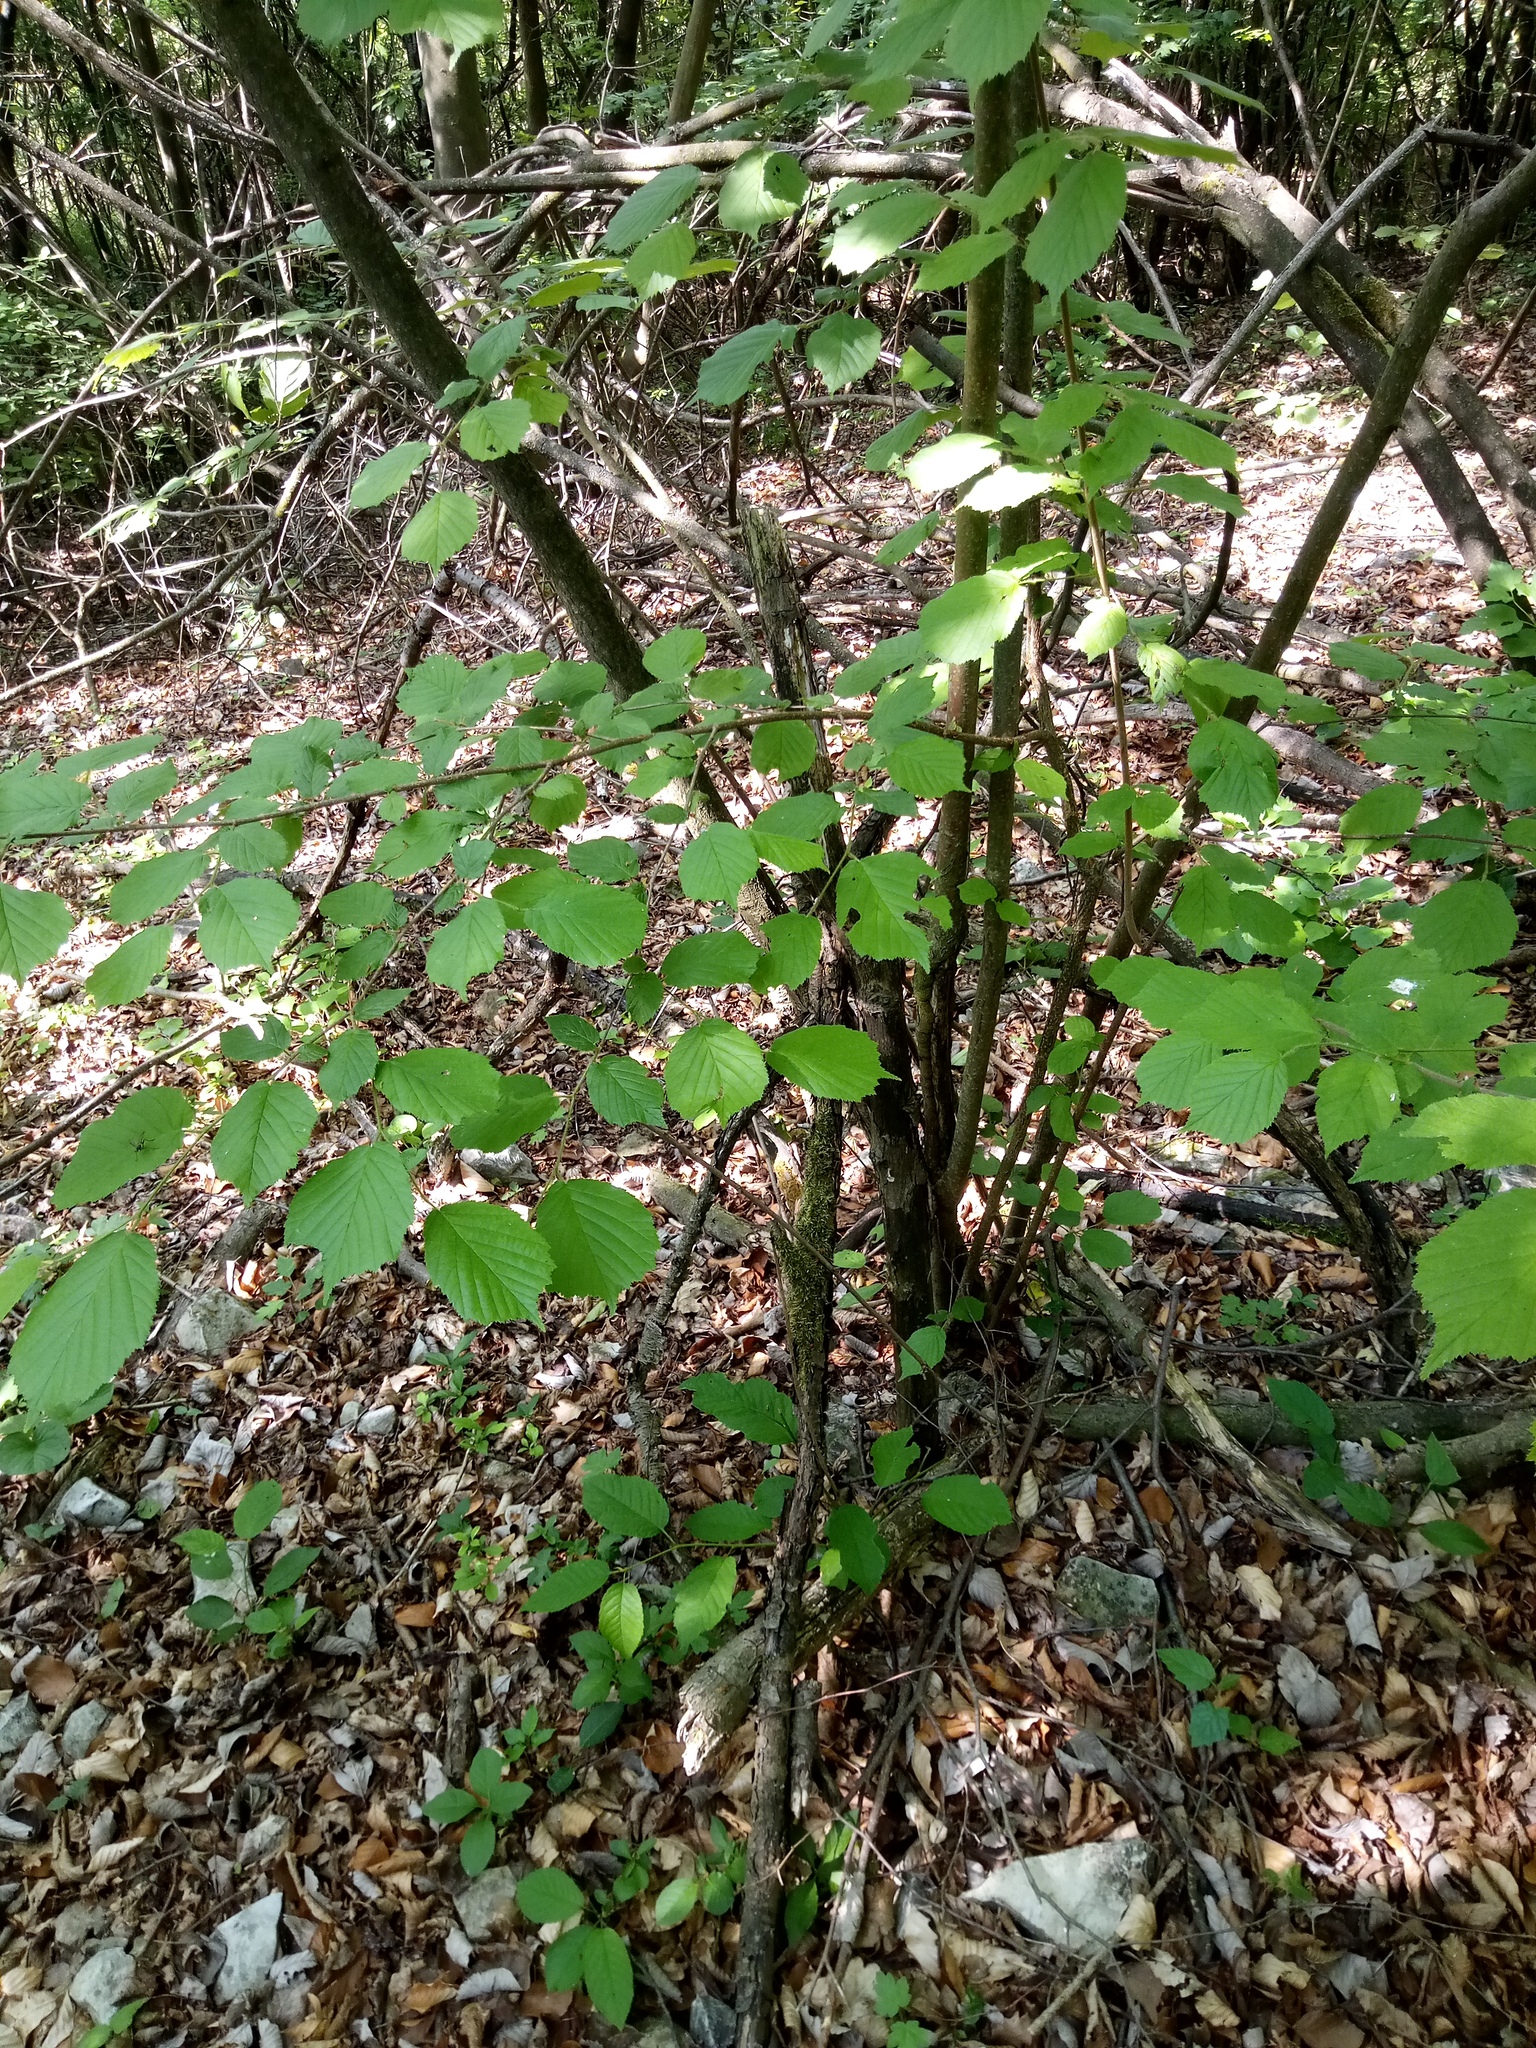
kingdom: Plantae
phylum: Tracheophyta
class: Magnoliopsida
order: Fagales
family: Betulaceae
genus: Corylus
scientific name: Corylus avellana
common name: European hazel
